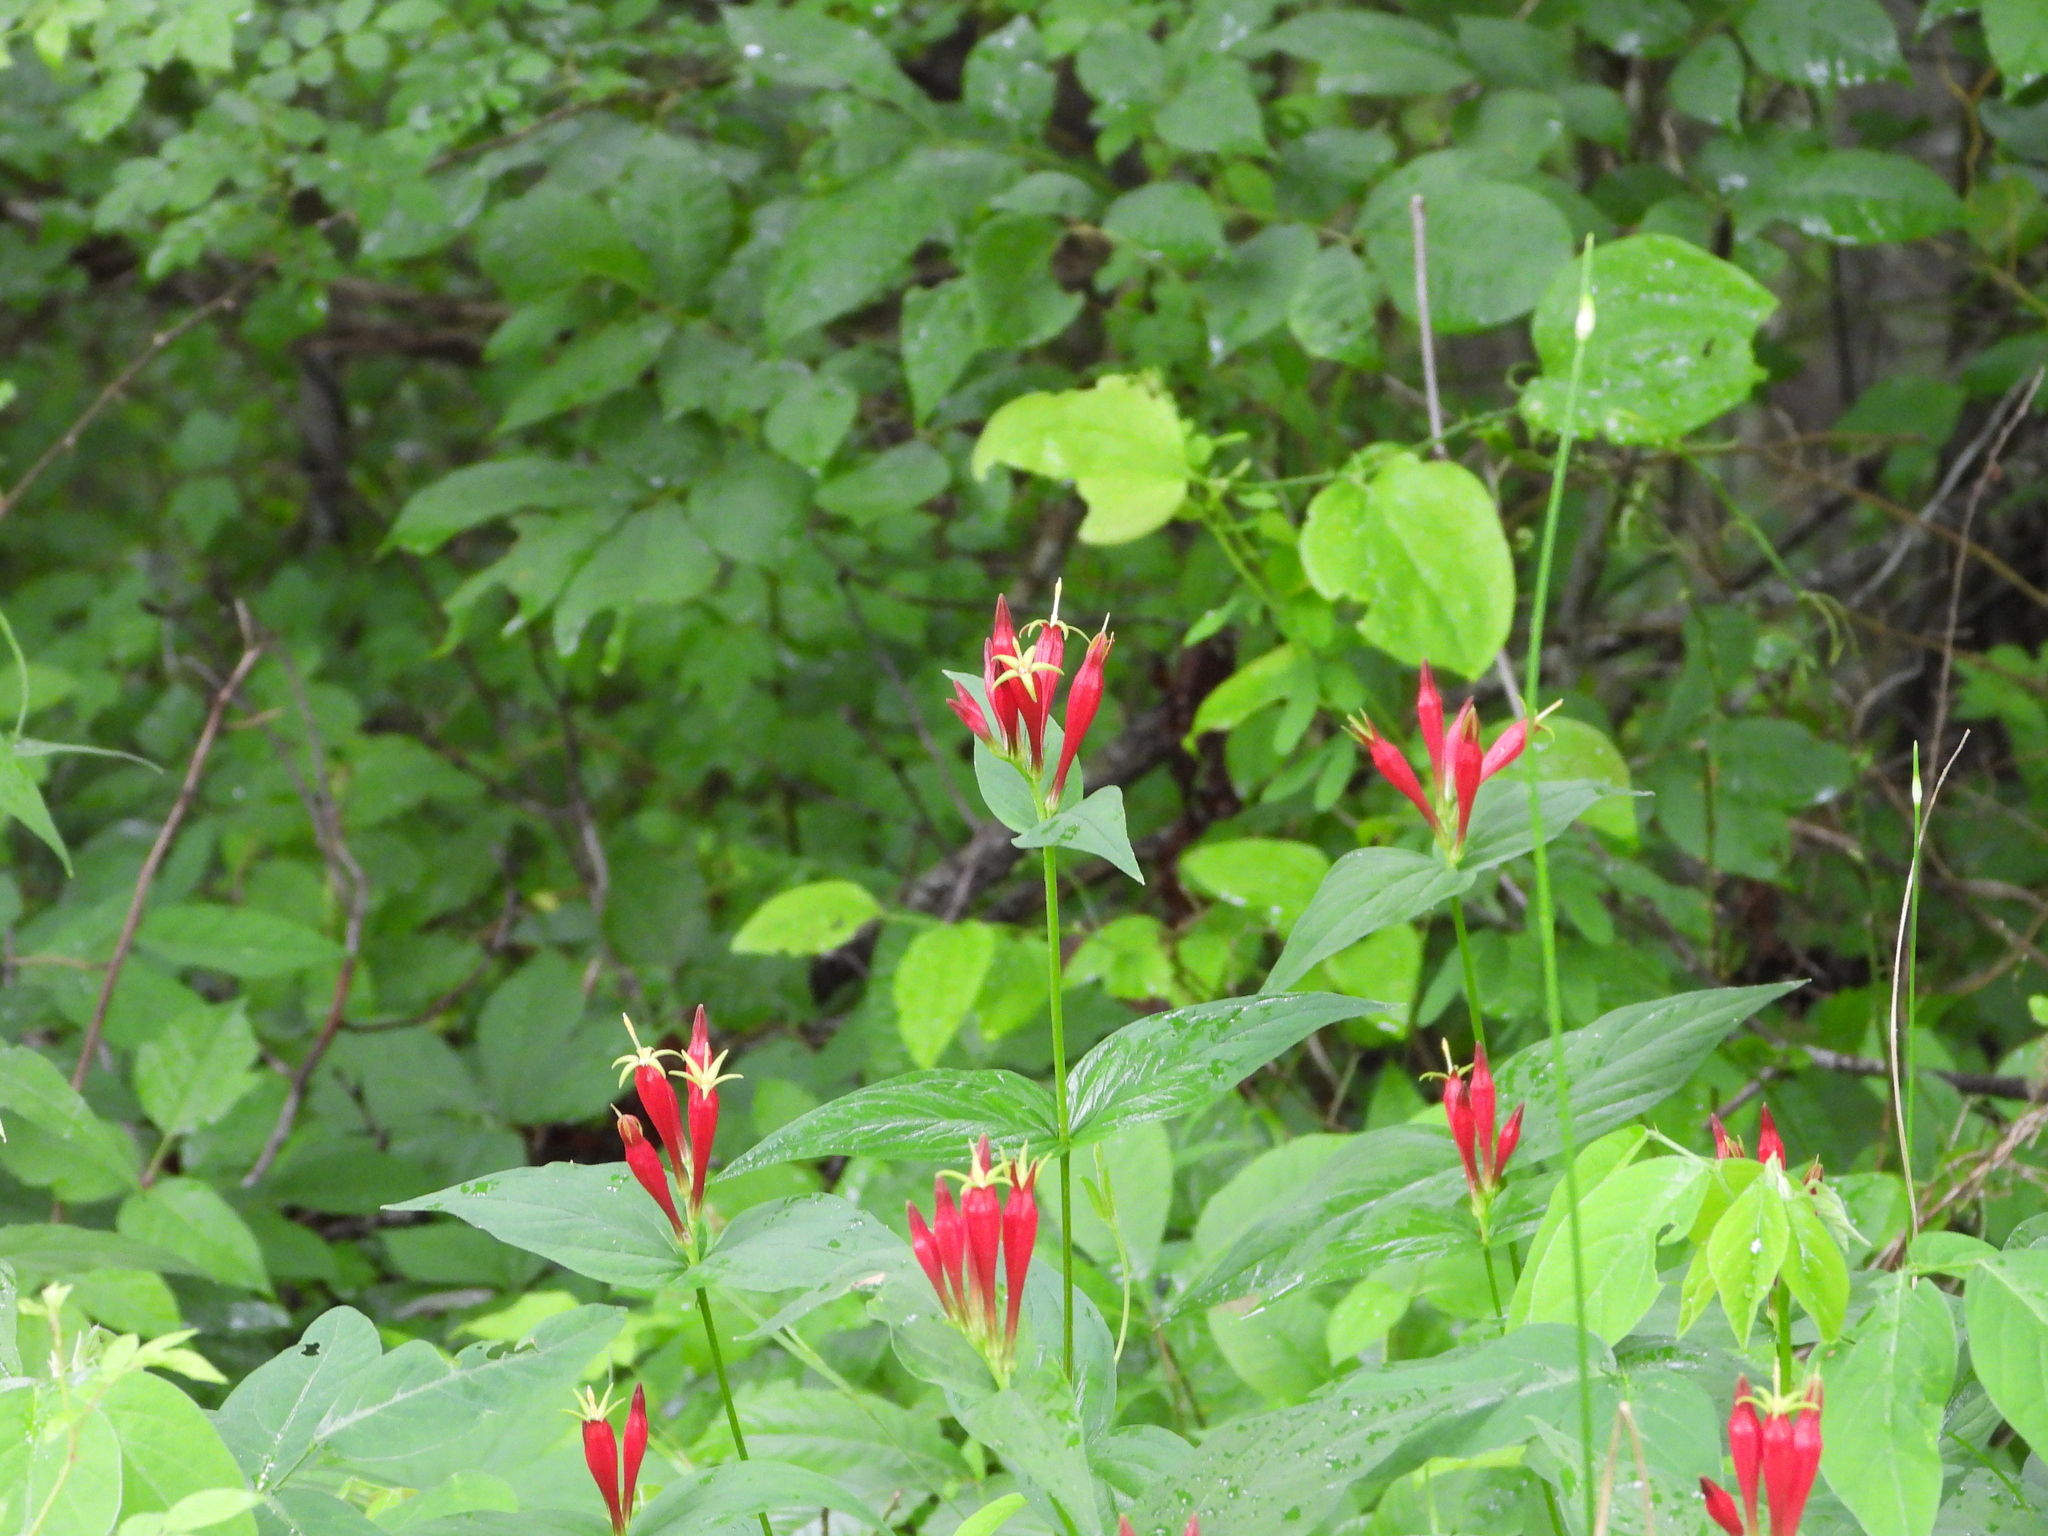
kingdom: Plantae
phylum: Tracheophyta
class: Magnoliopsida
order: Gentianales
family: Loganiaceae
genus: Spigelia
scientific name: Spigelia marilandica
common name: Indian-pink
